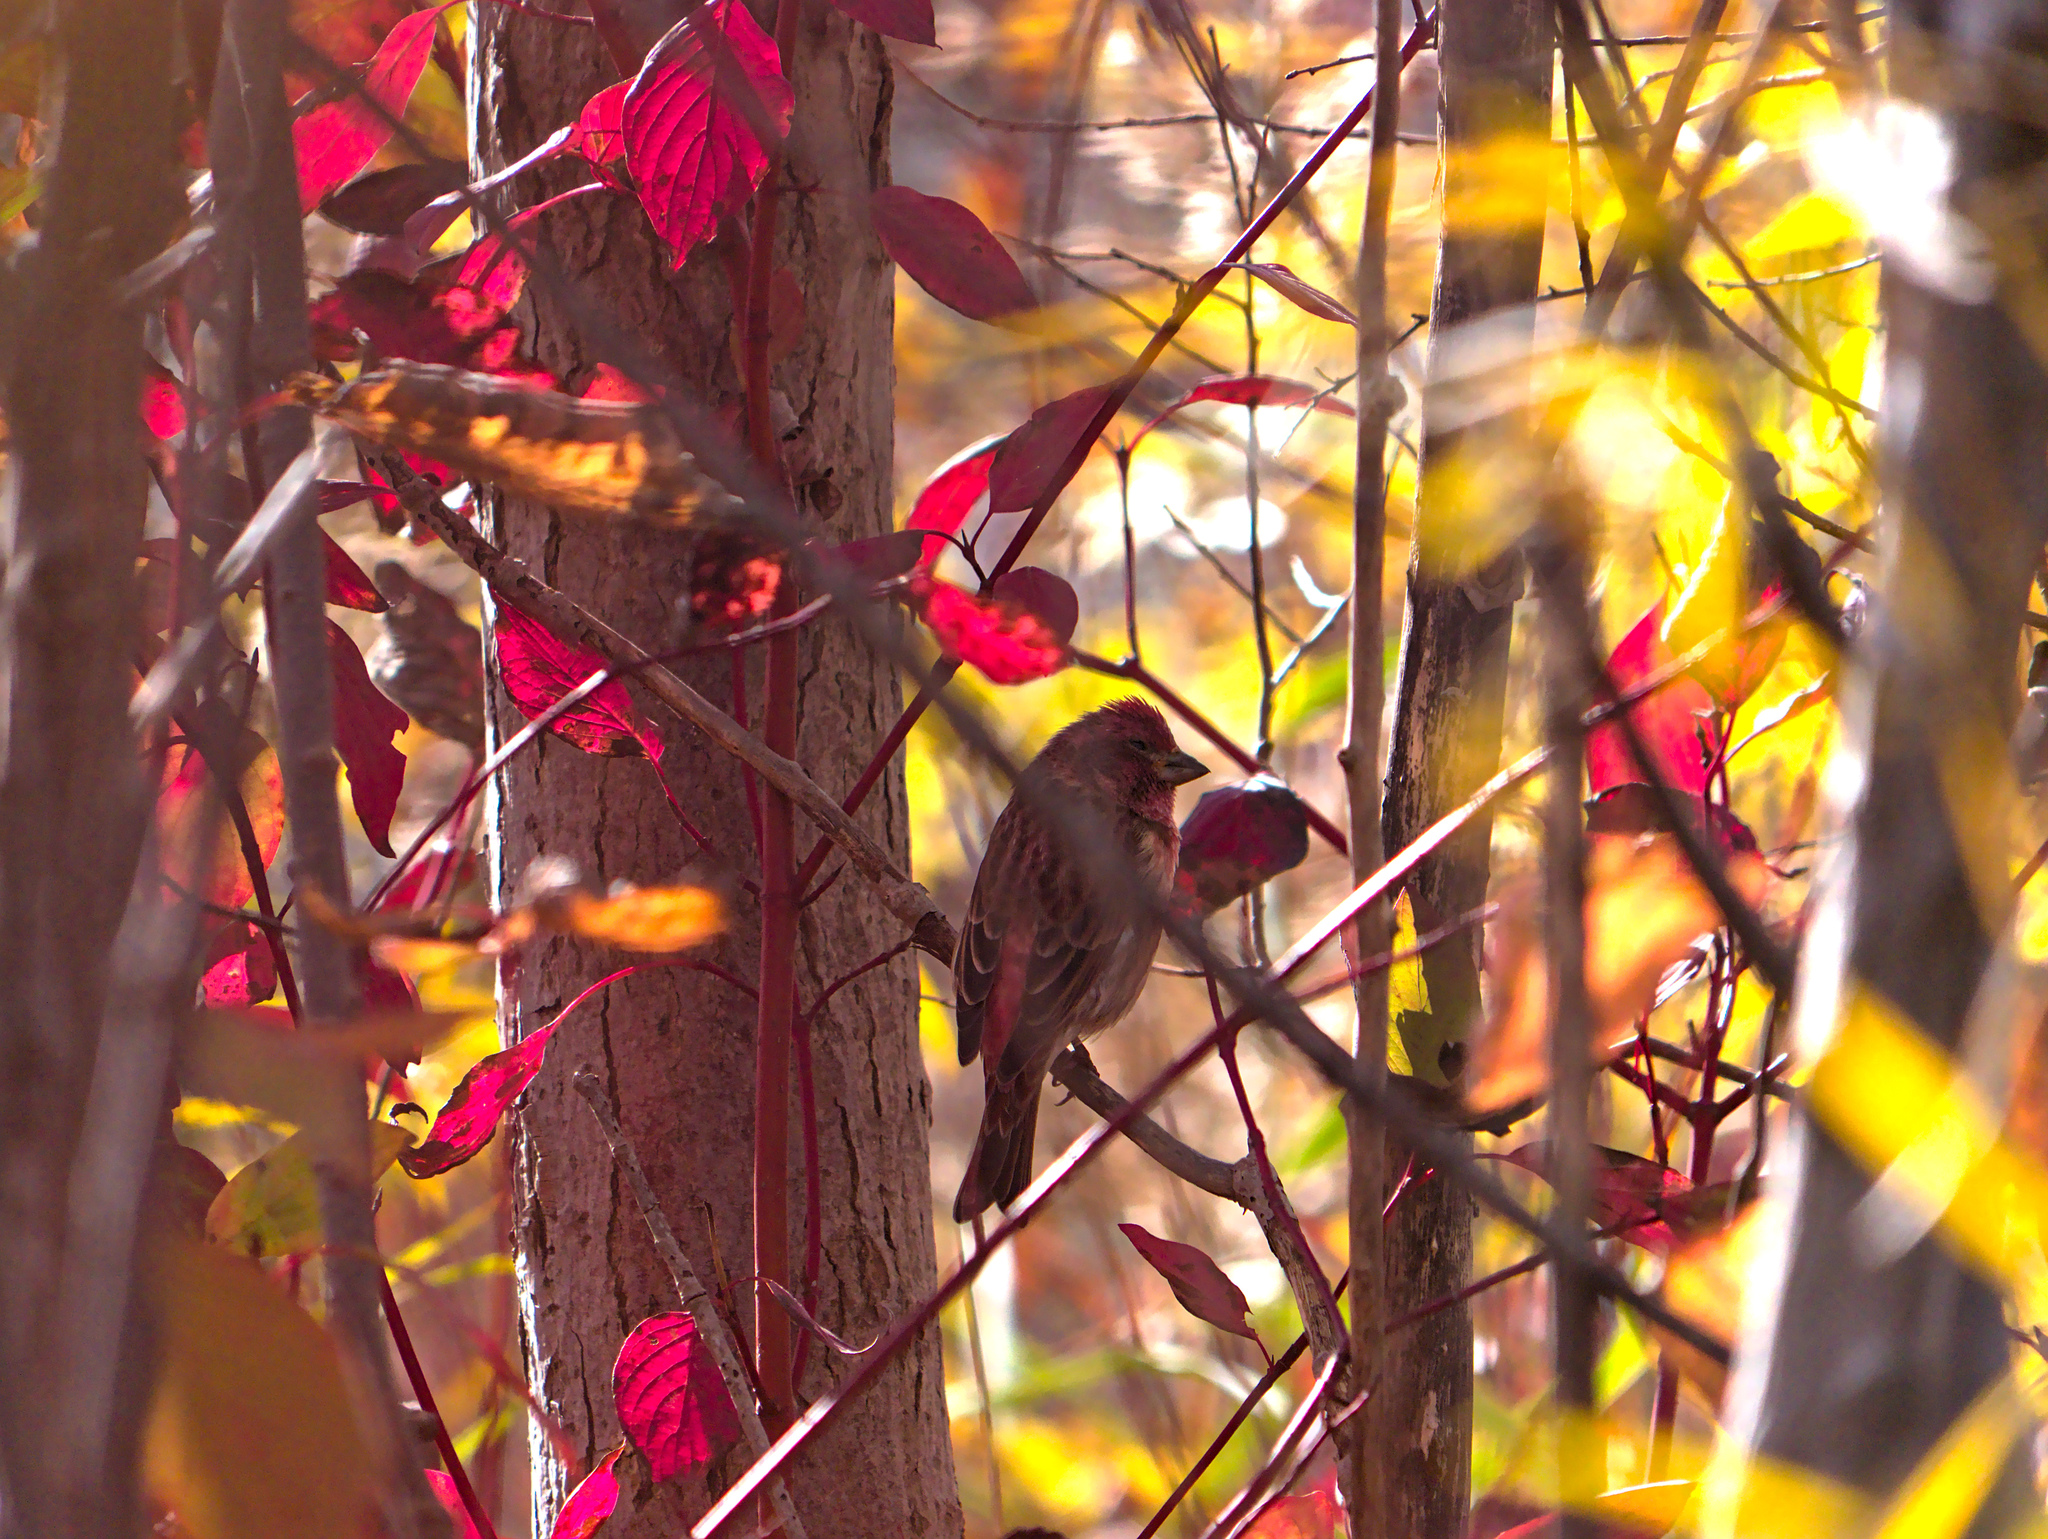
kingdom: Animalia
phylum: Chordata
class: Aves
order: Passeriformes
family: Fringillidae
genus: Haemorhous
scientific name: Haemorhous purpureus
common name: Purple finch
